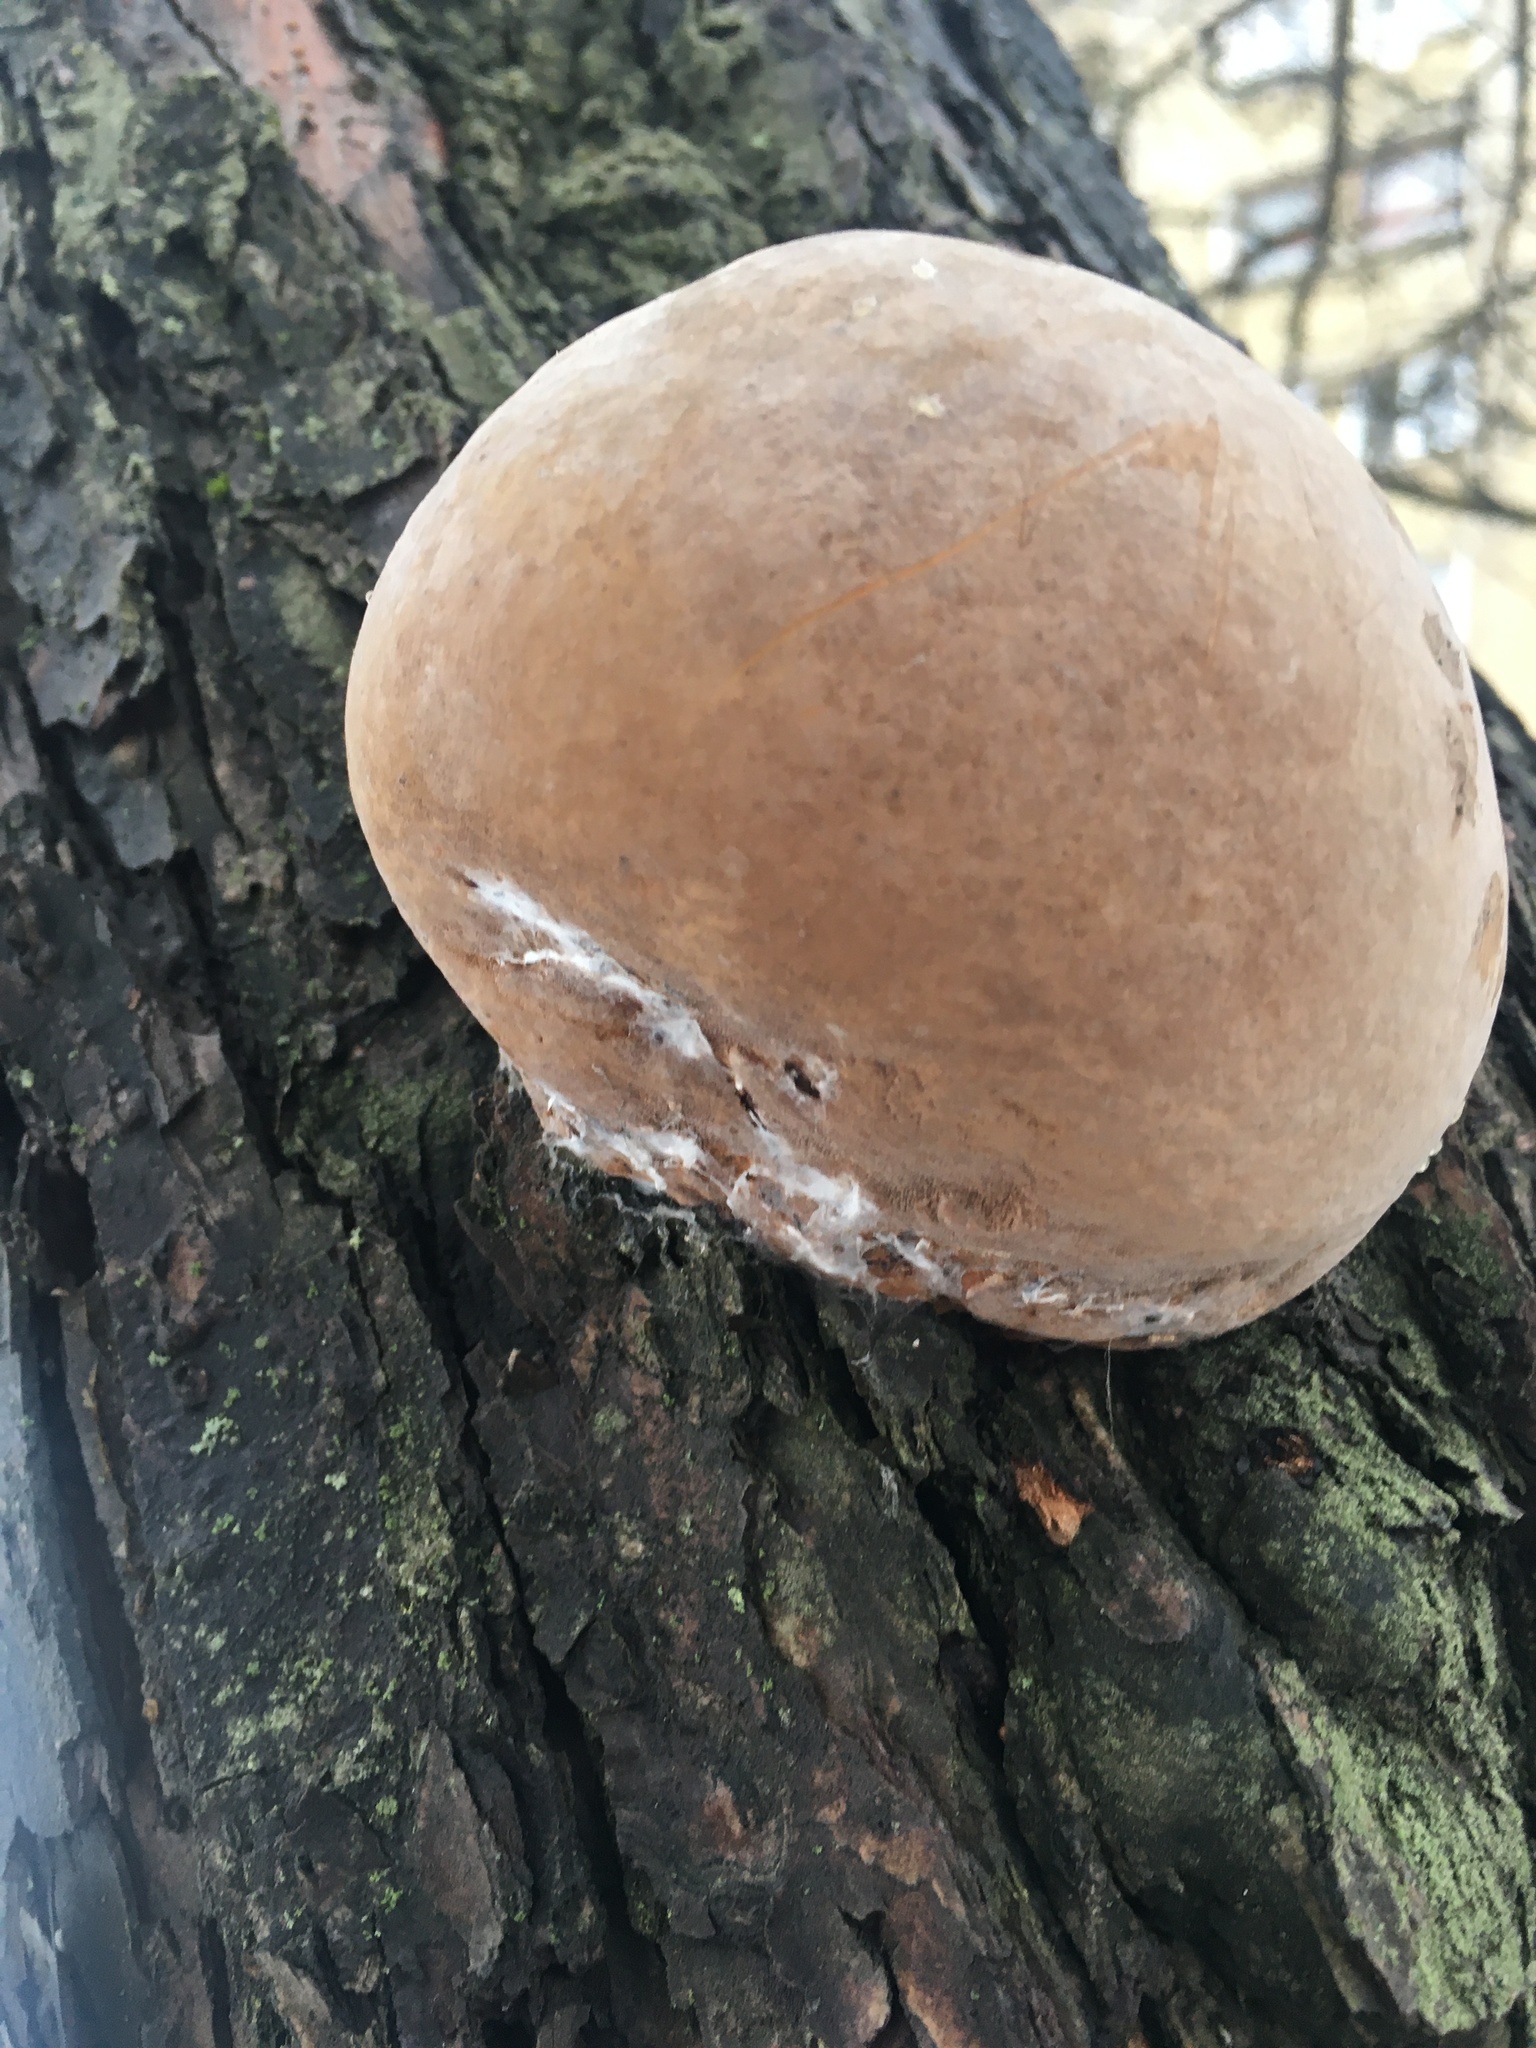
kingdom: Fungi
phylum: Basidiomycota
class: Agaricomycetes
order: Hymenochaetales
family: Hymenochaetaceae
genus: Phellinus
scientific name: Phellinus igniarius
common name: Willow bracket
